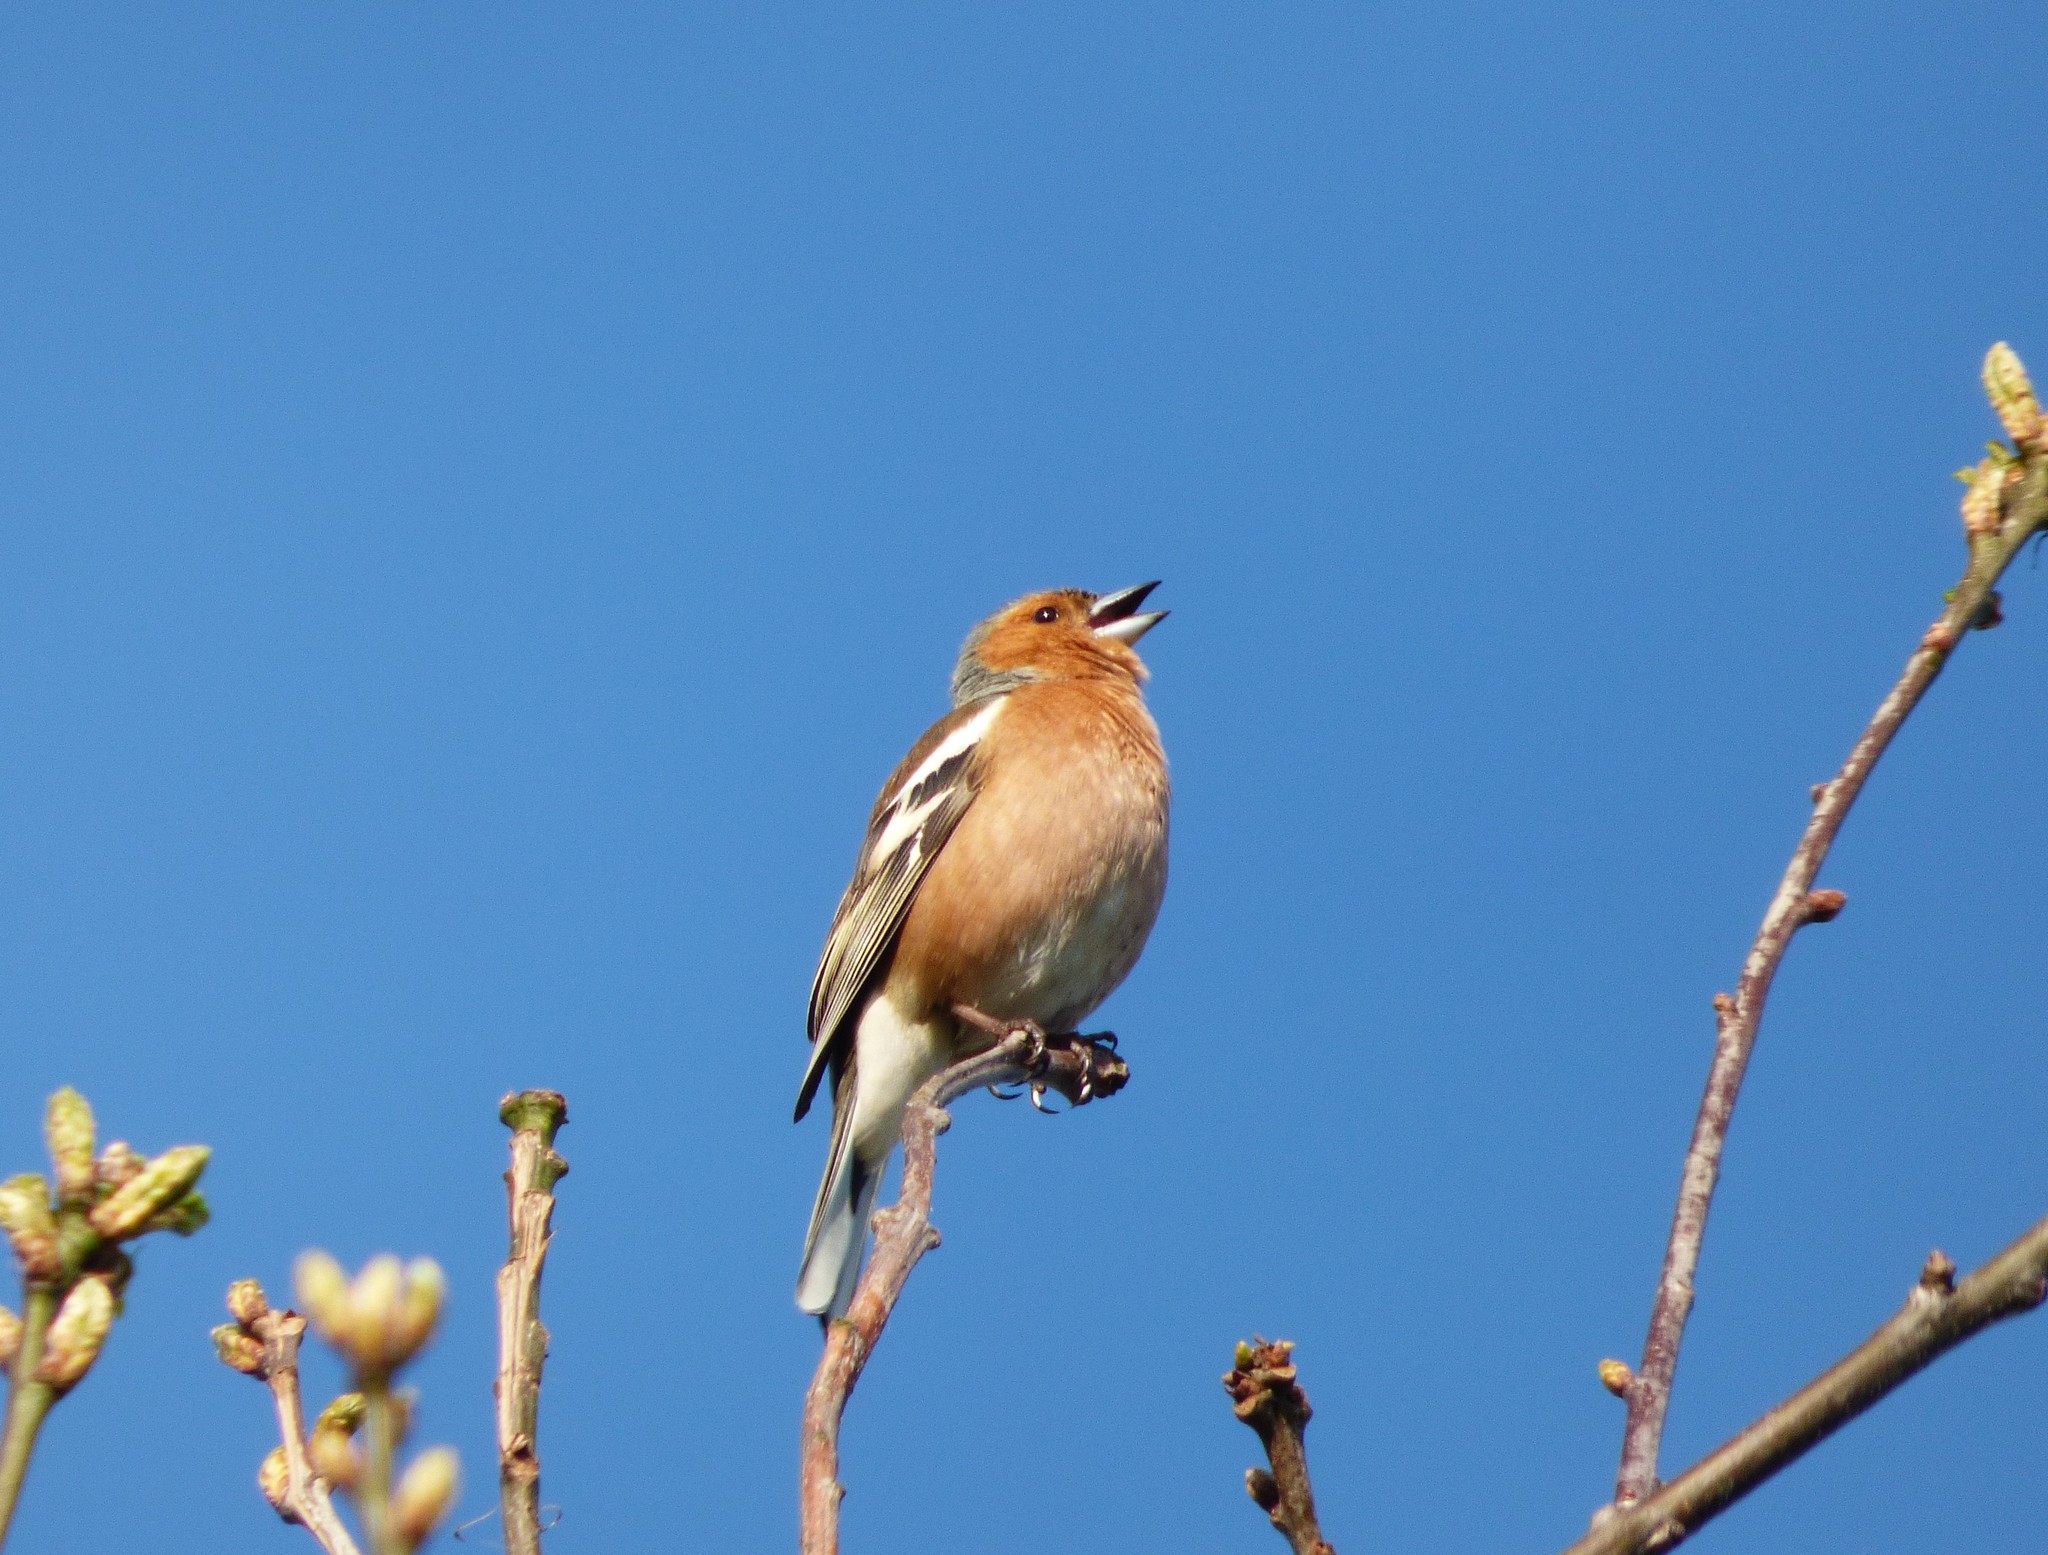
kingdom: Animalia
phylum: Chordata
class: Aves
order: Passeriformes
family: Fringillidae
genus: Fringilla
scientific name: Fringilla coelebs
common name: Common chaffinch
